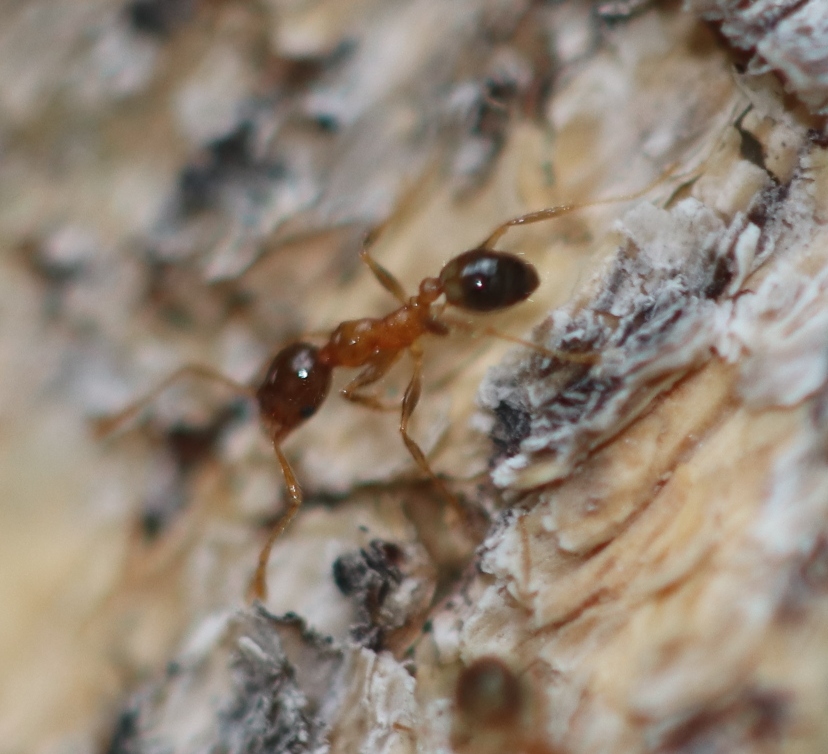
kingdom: Animalia
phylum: Arthropoda
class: Insecta
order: Hymenoptera
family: Formicidae
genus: Pheidole
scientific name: Pheidole megacephala
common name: Bigheaded ant
